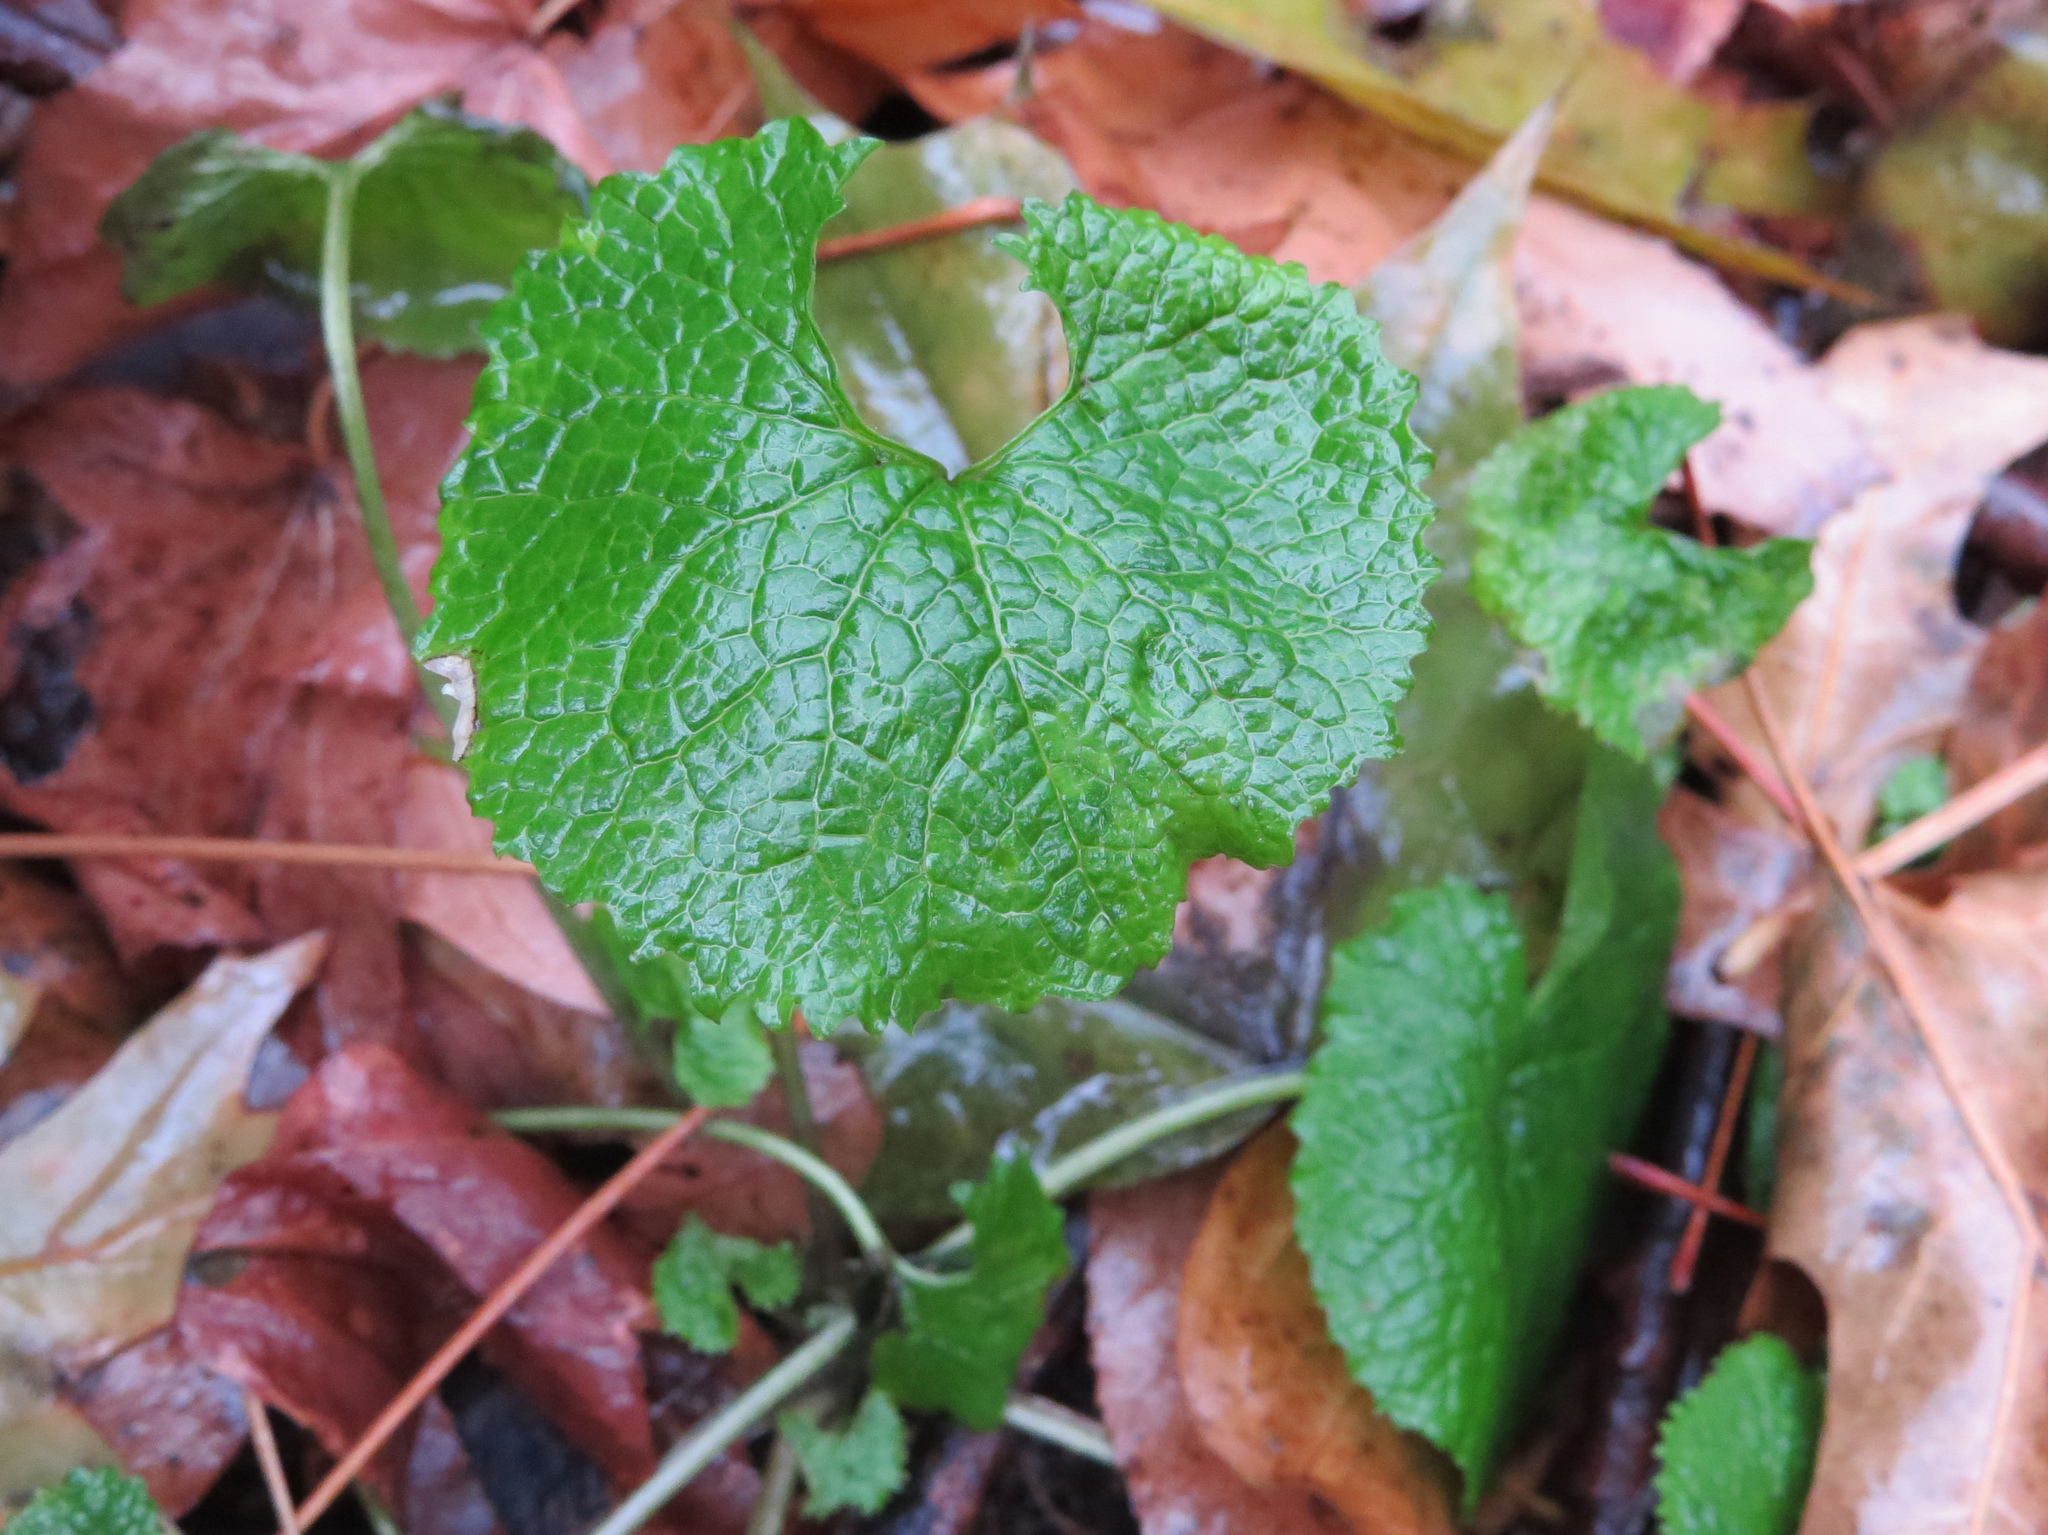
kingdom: Plantae
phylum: Tracheophyta
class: Magnoliopsida
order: Brassicales
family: Brassicaceae
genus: Alliaria
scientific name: Alliaria petiolata
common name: Garlic mustard
